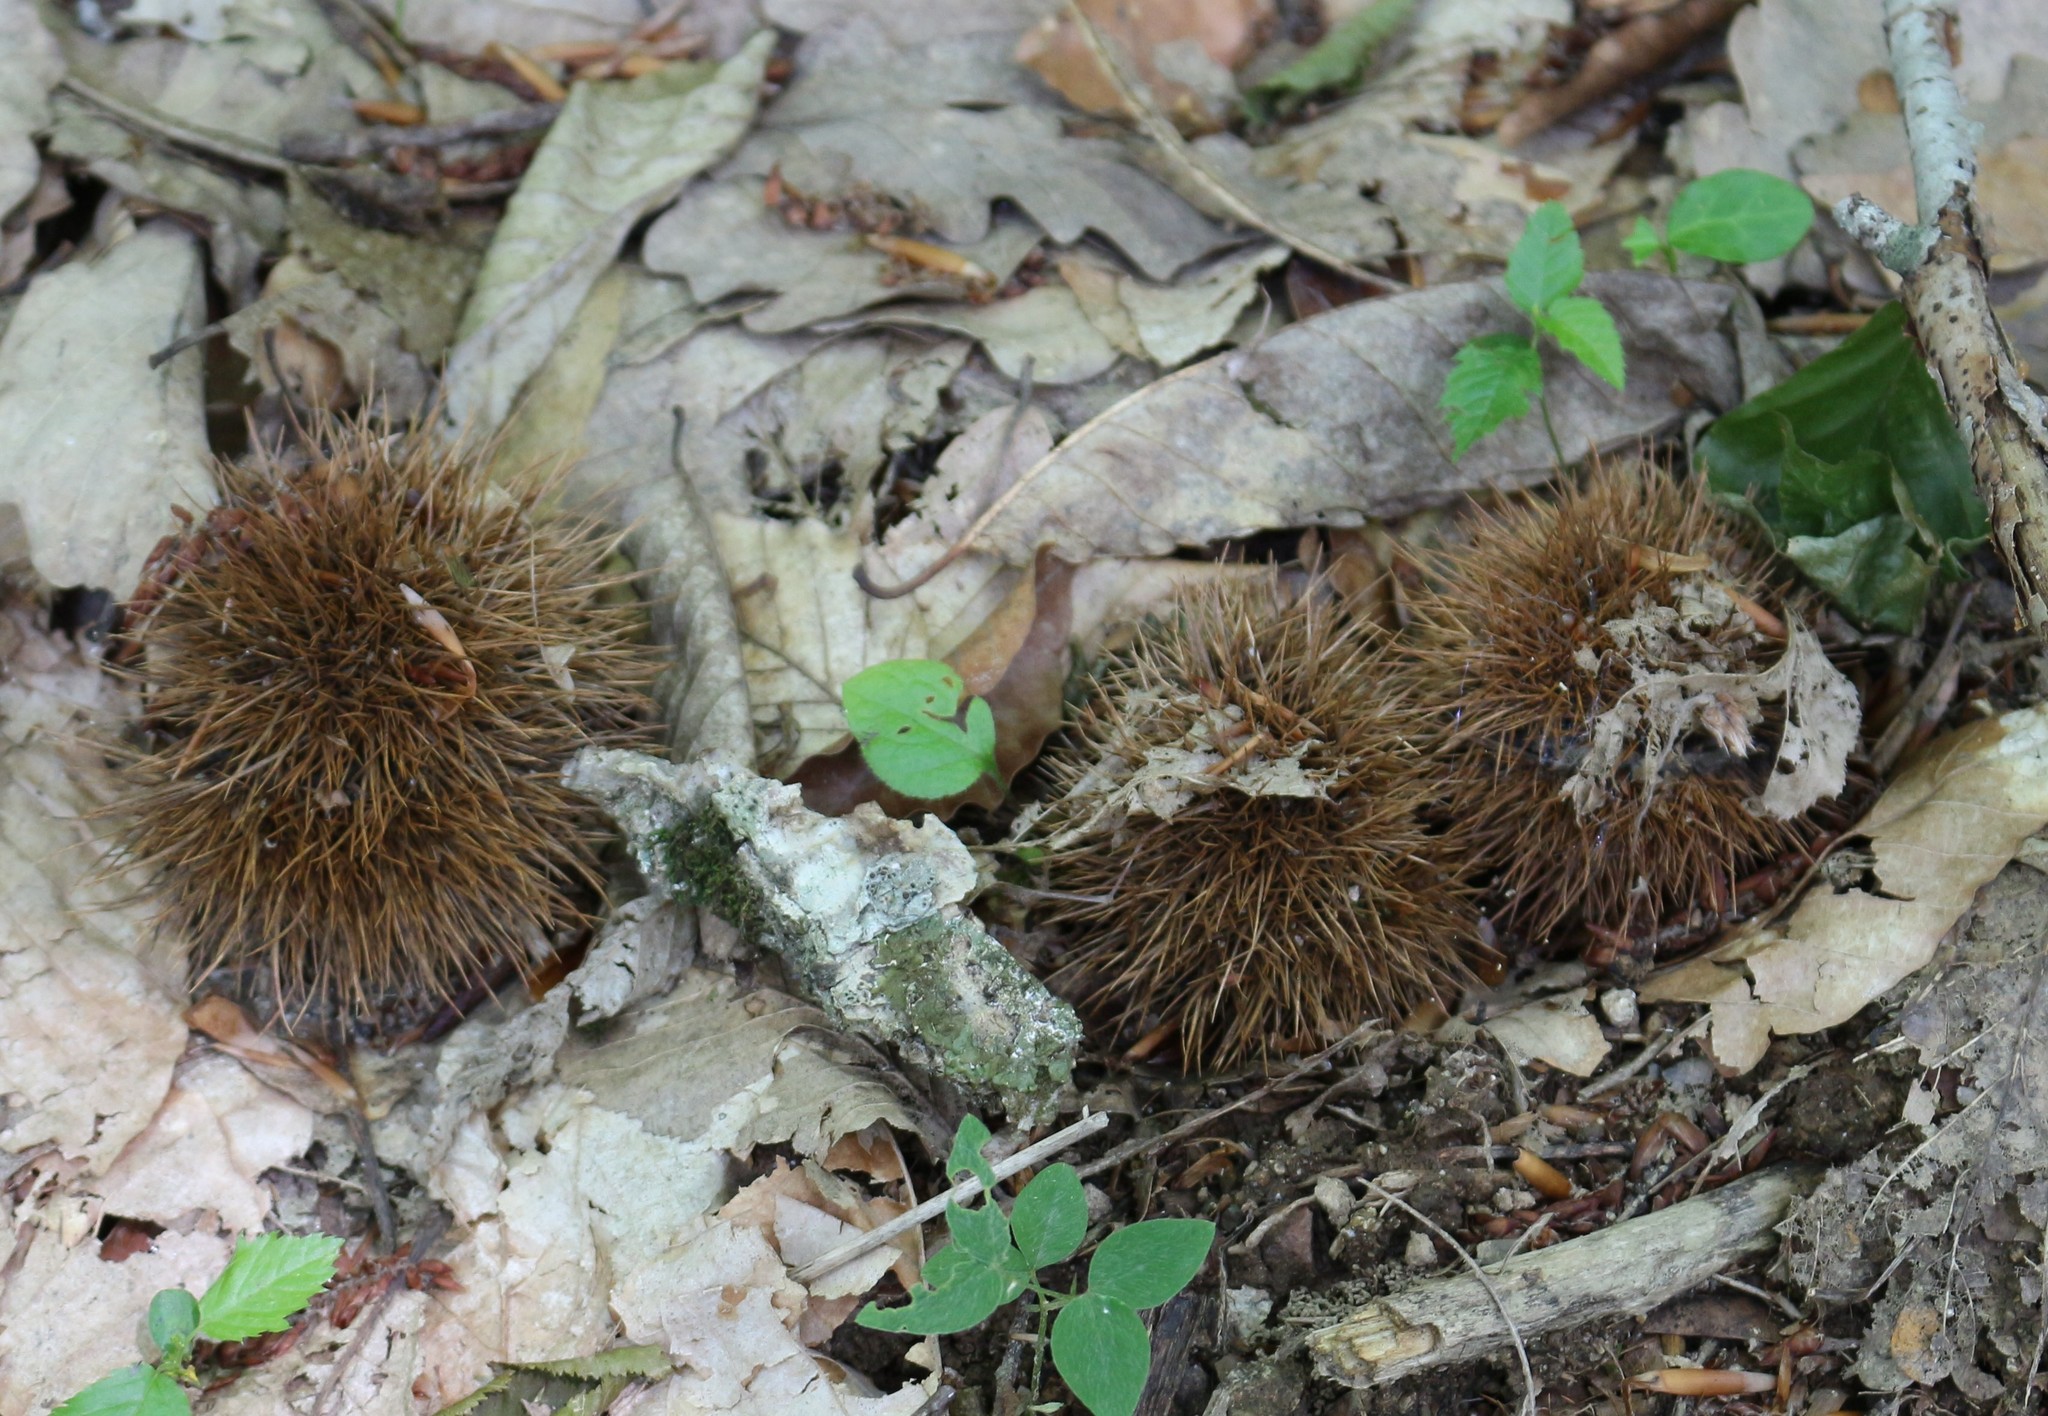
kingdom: Plantae
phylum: Tracheophyta
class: Magnoliopsida
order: Fagales
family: Fagaceae
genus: Castanea
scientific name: Castanea sativa
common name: Sweet chestnut
